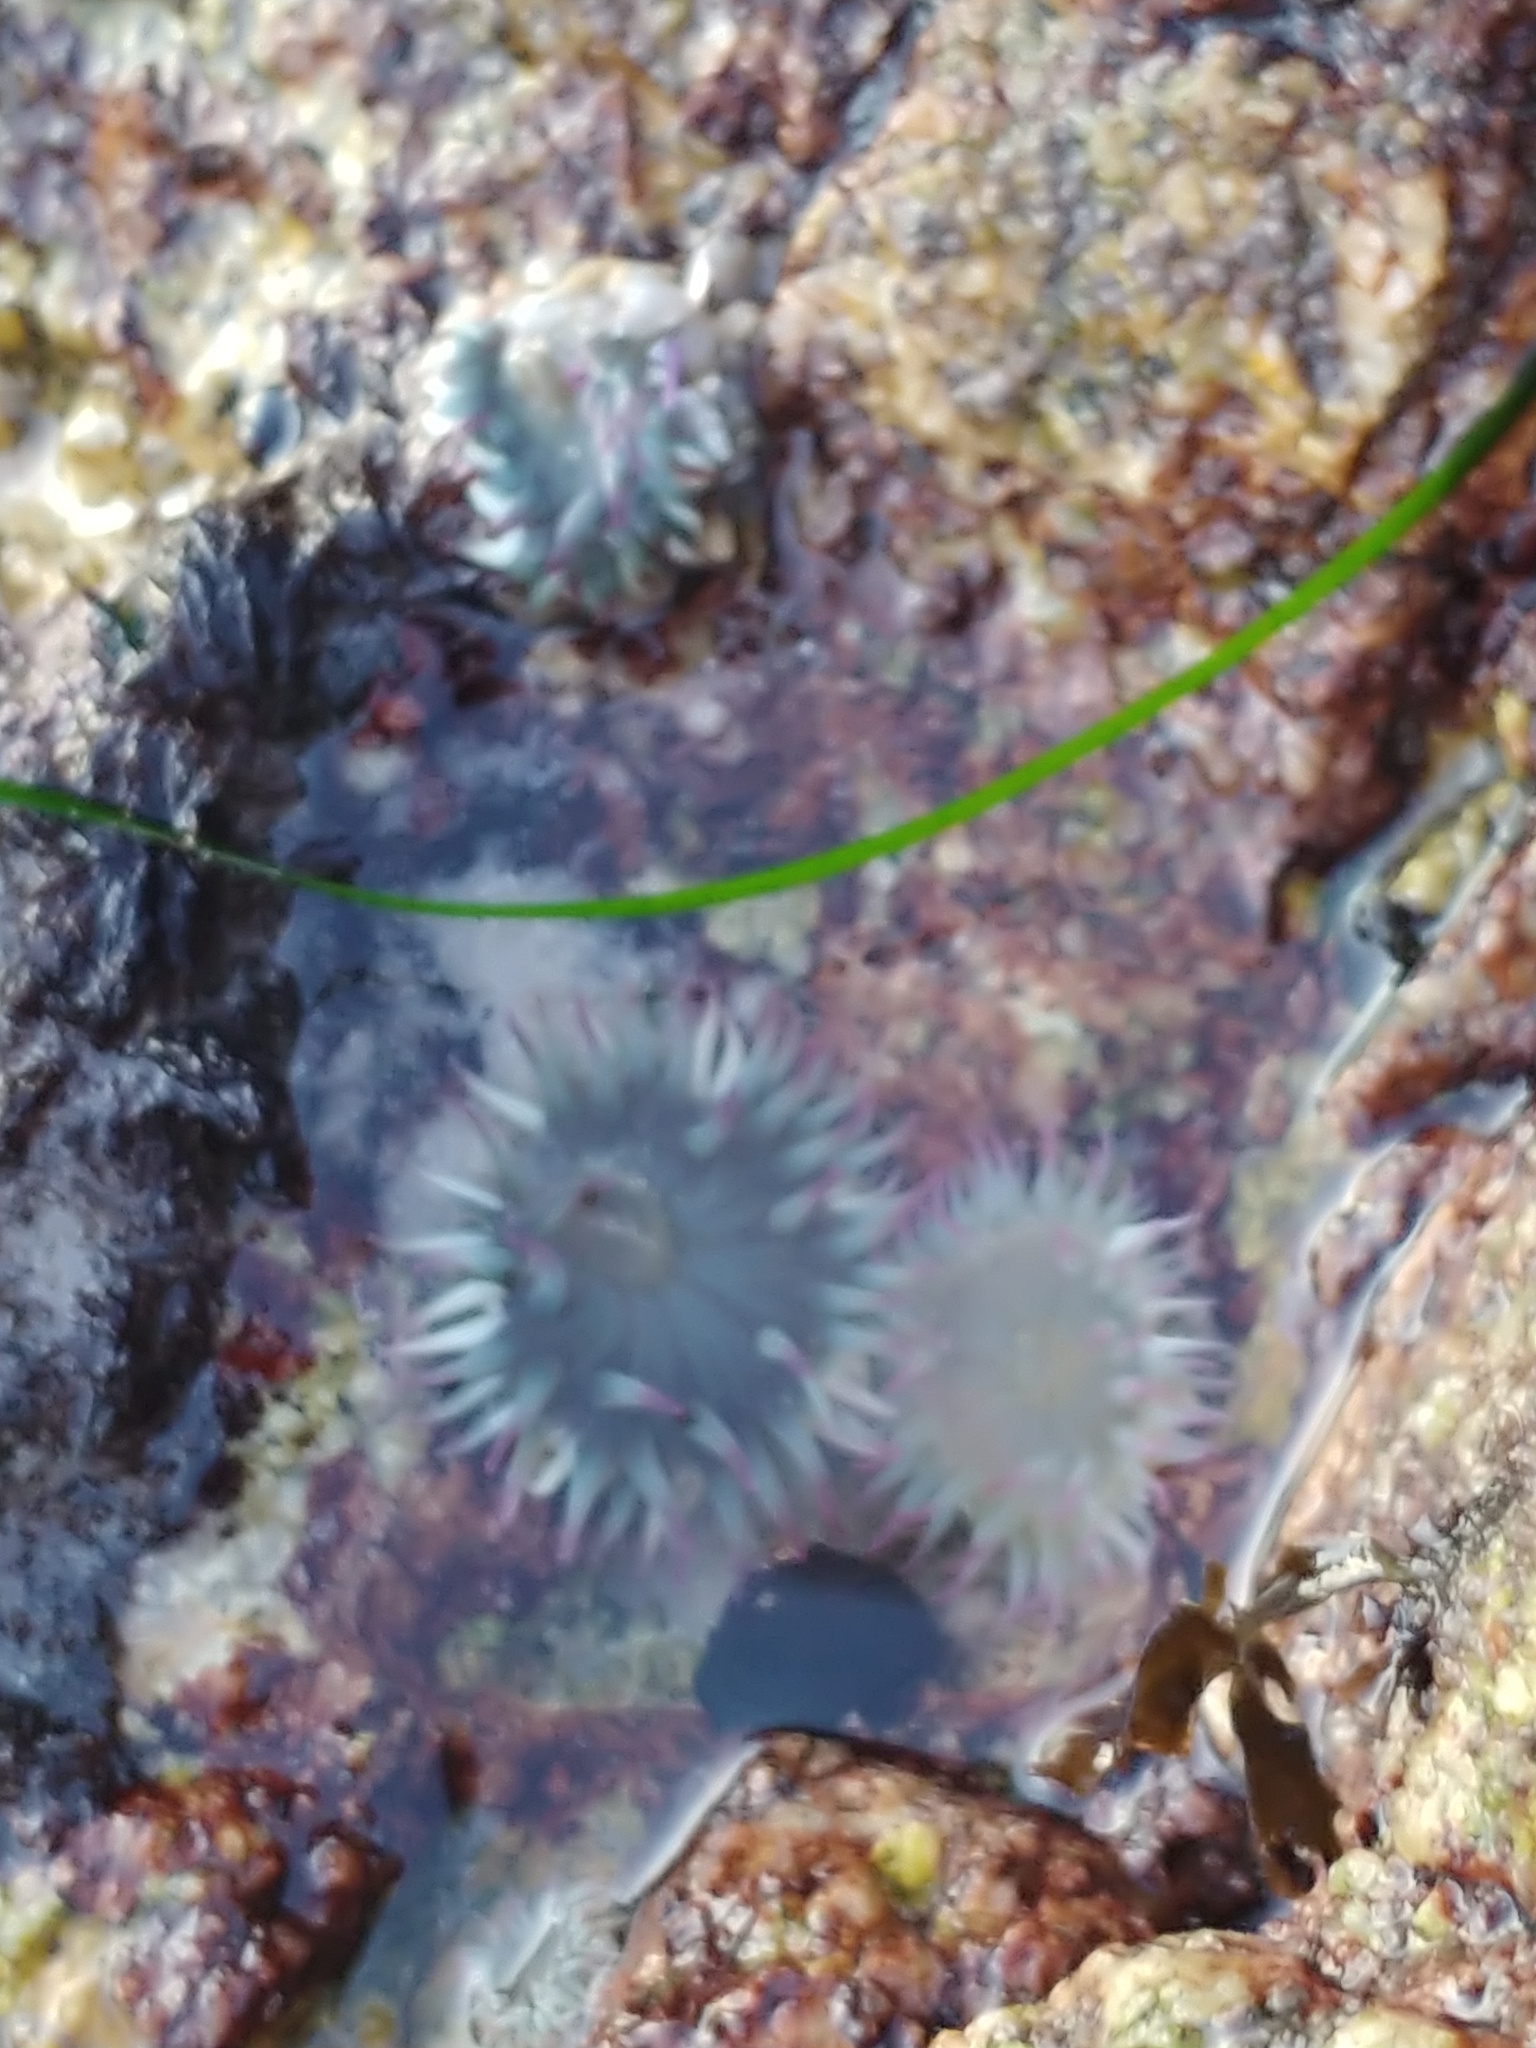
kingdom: Animalia
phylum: Cnidaria
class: Anthozoa
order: Actiniaria
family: Actiniidae
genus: Anthopleura
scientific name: Anthopleura elegantissima
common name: Clonal anemone
